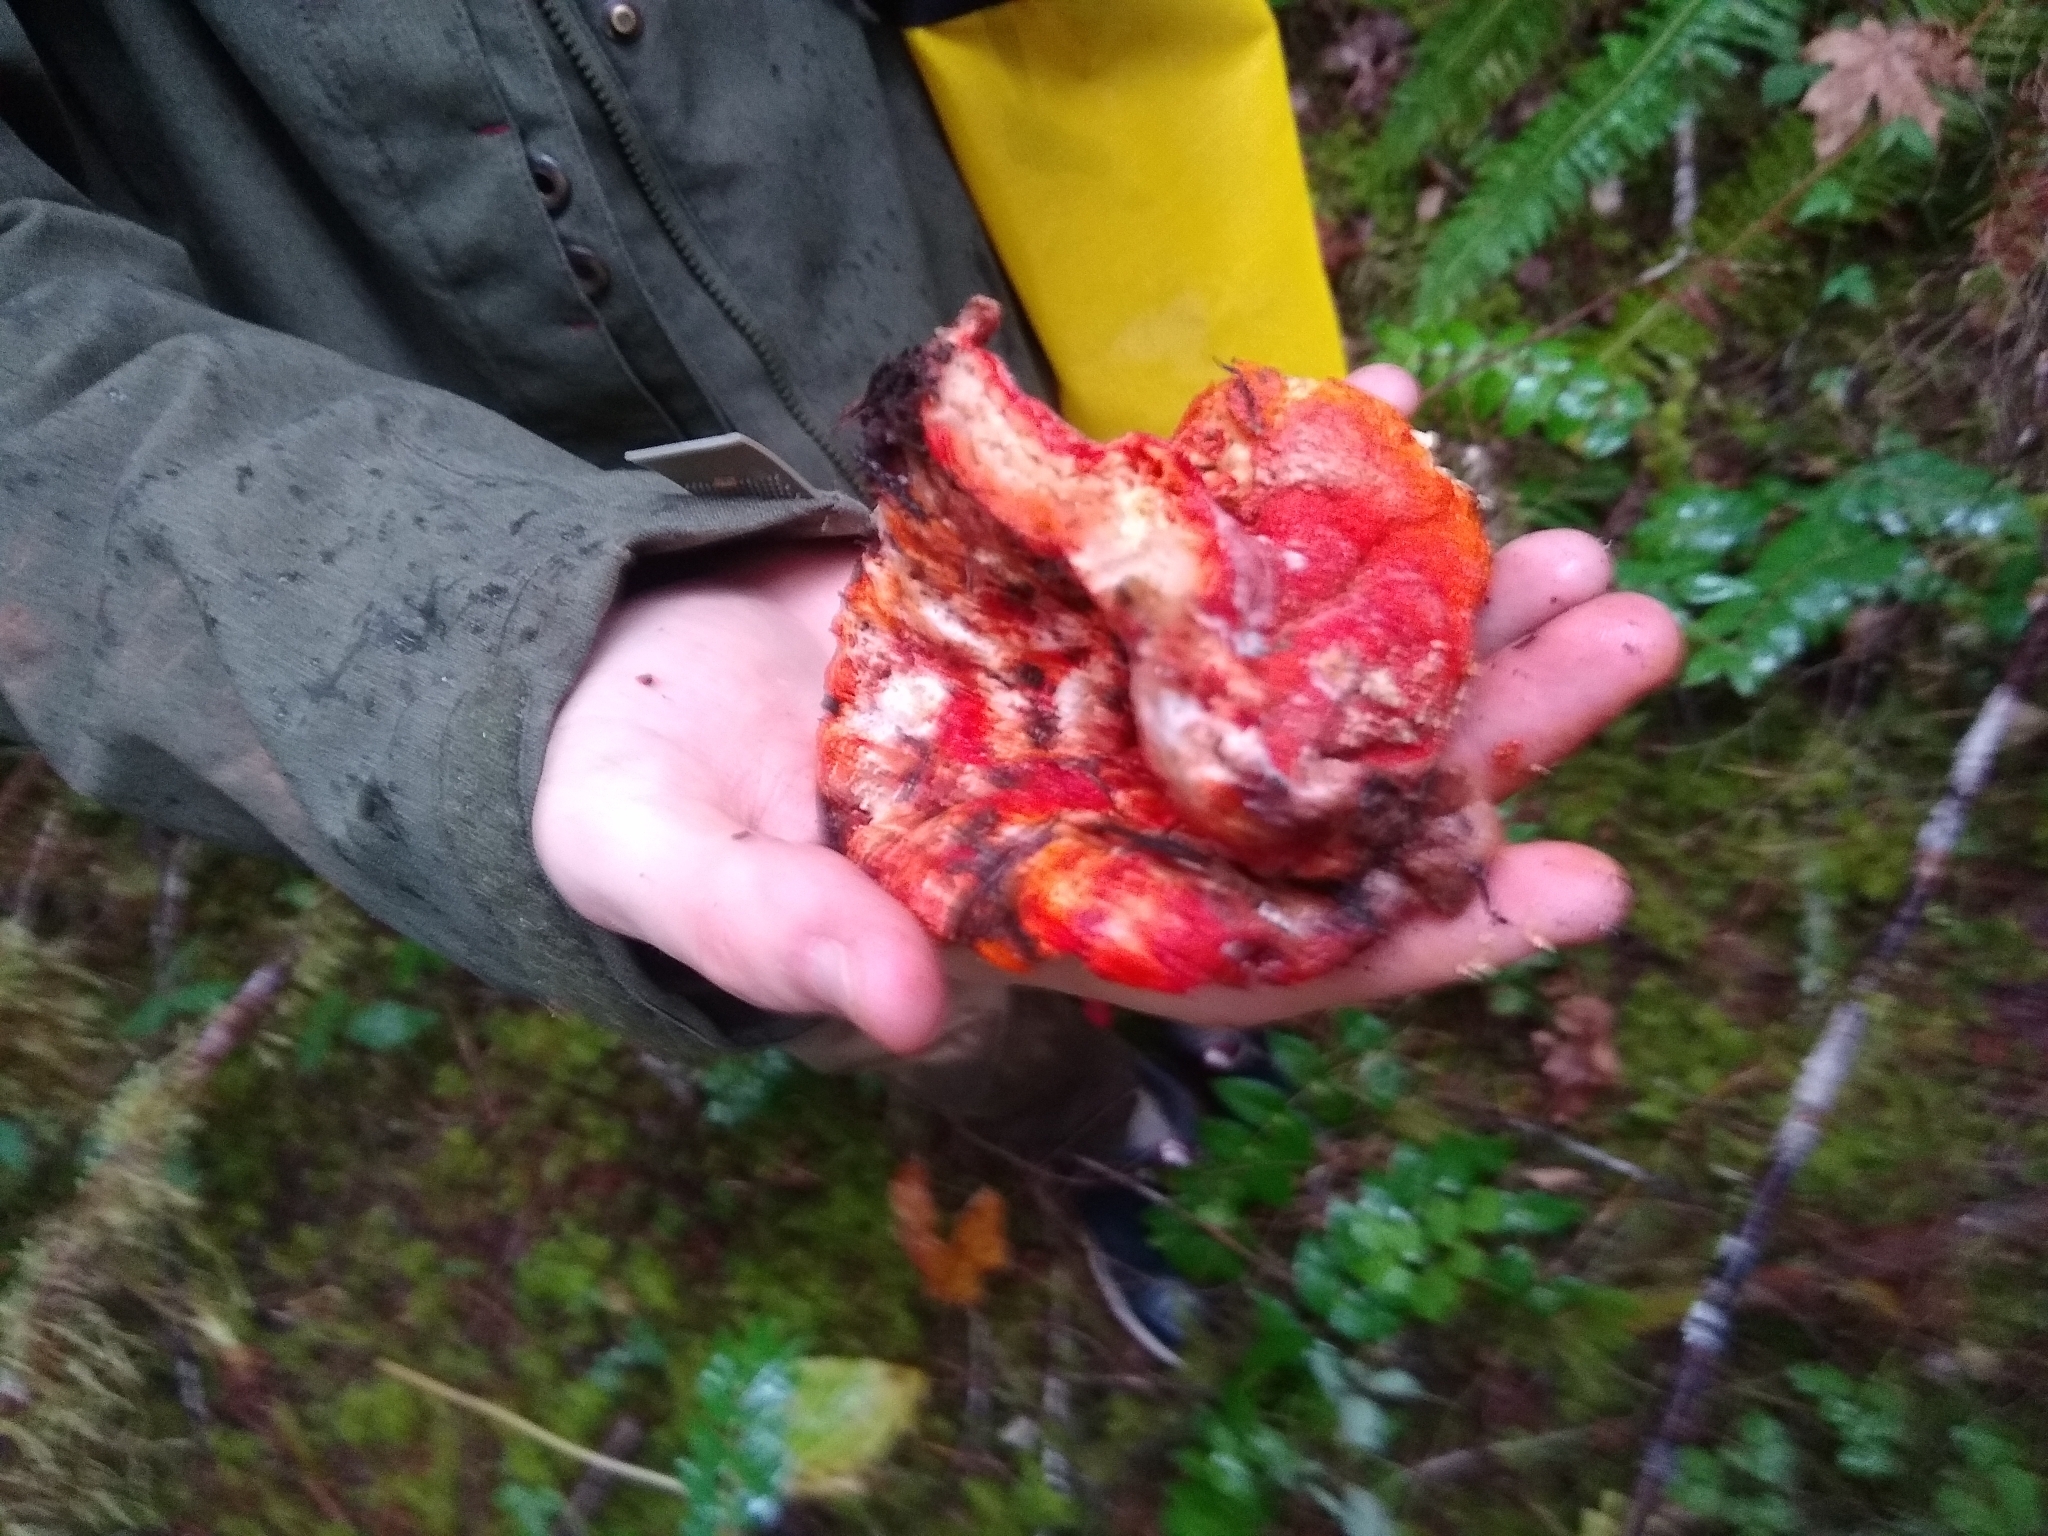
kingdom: Fungi
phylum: Ascomycota
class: Sordariomycetes
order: Hypocreales
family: Hypocreaceae
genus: Hypomyces
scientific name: Hypomyces lactifluorum
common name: Lobster mushroom
